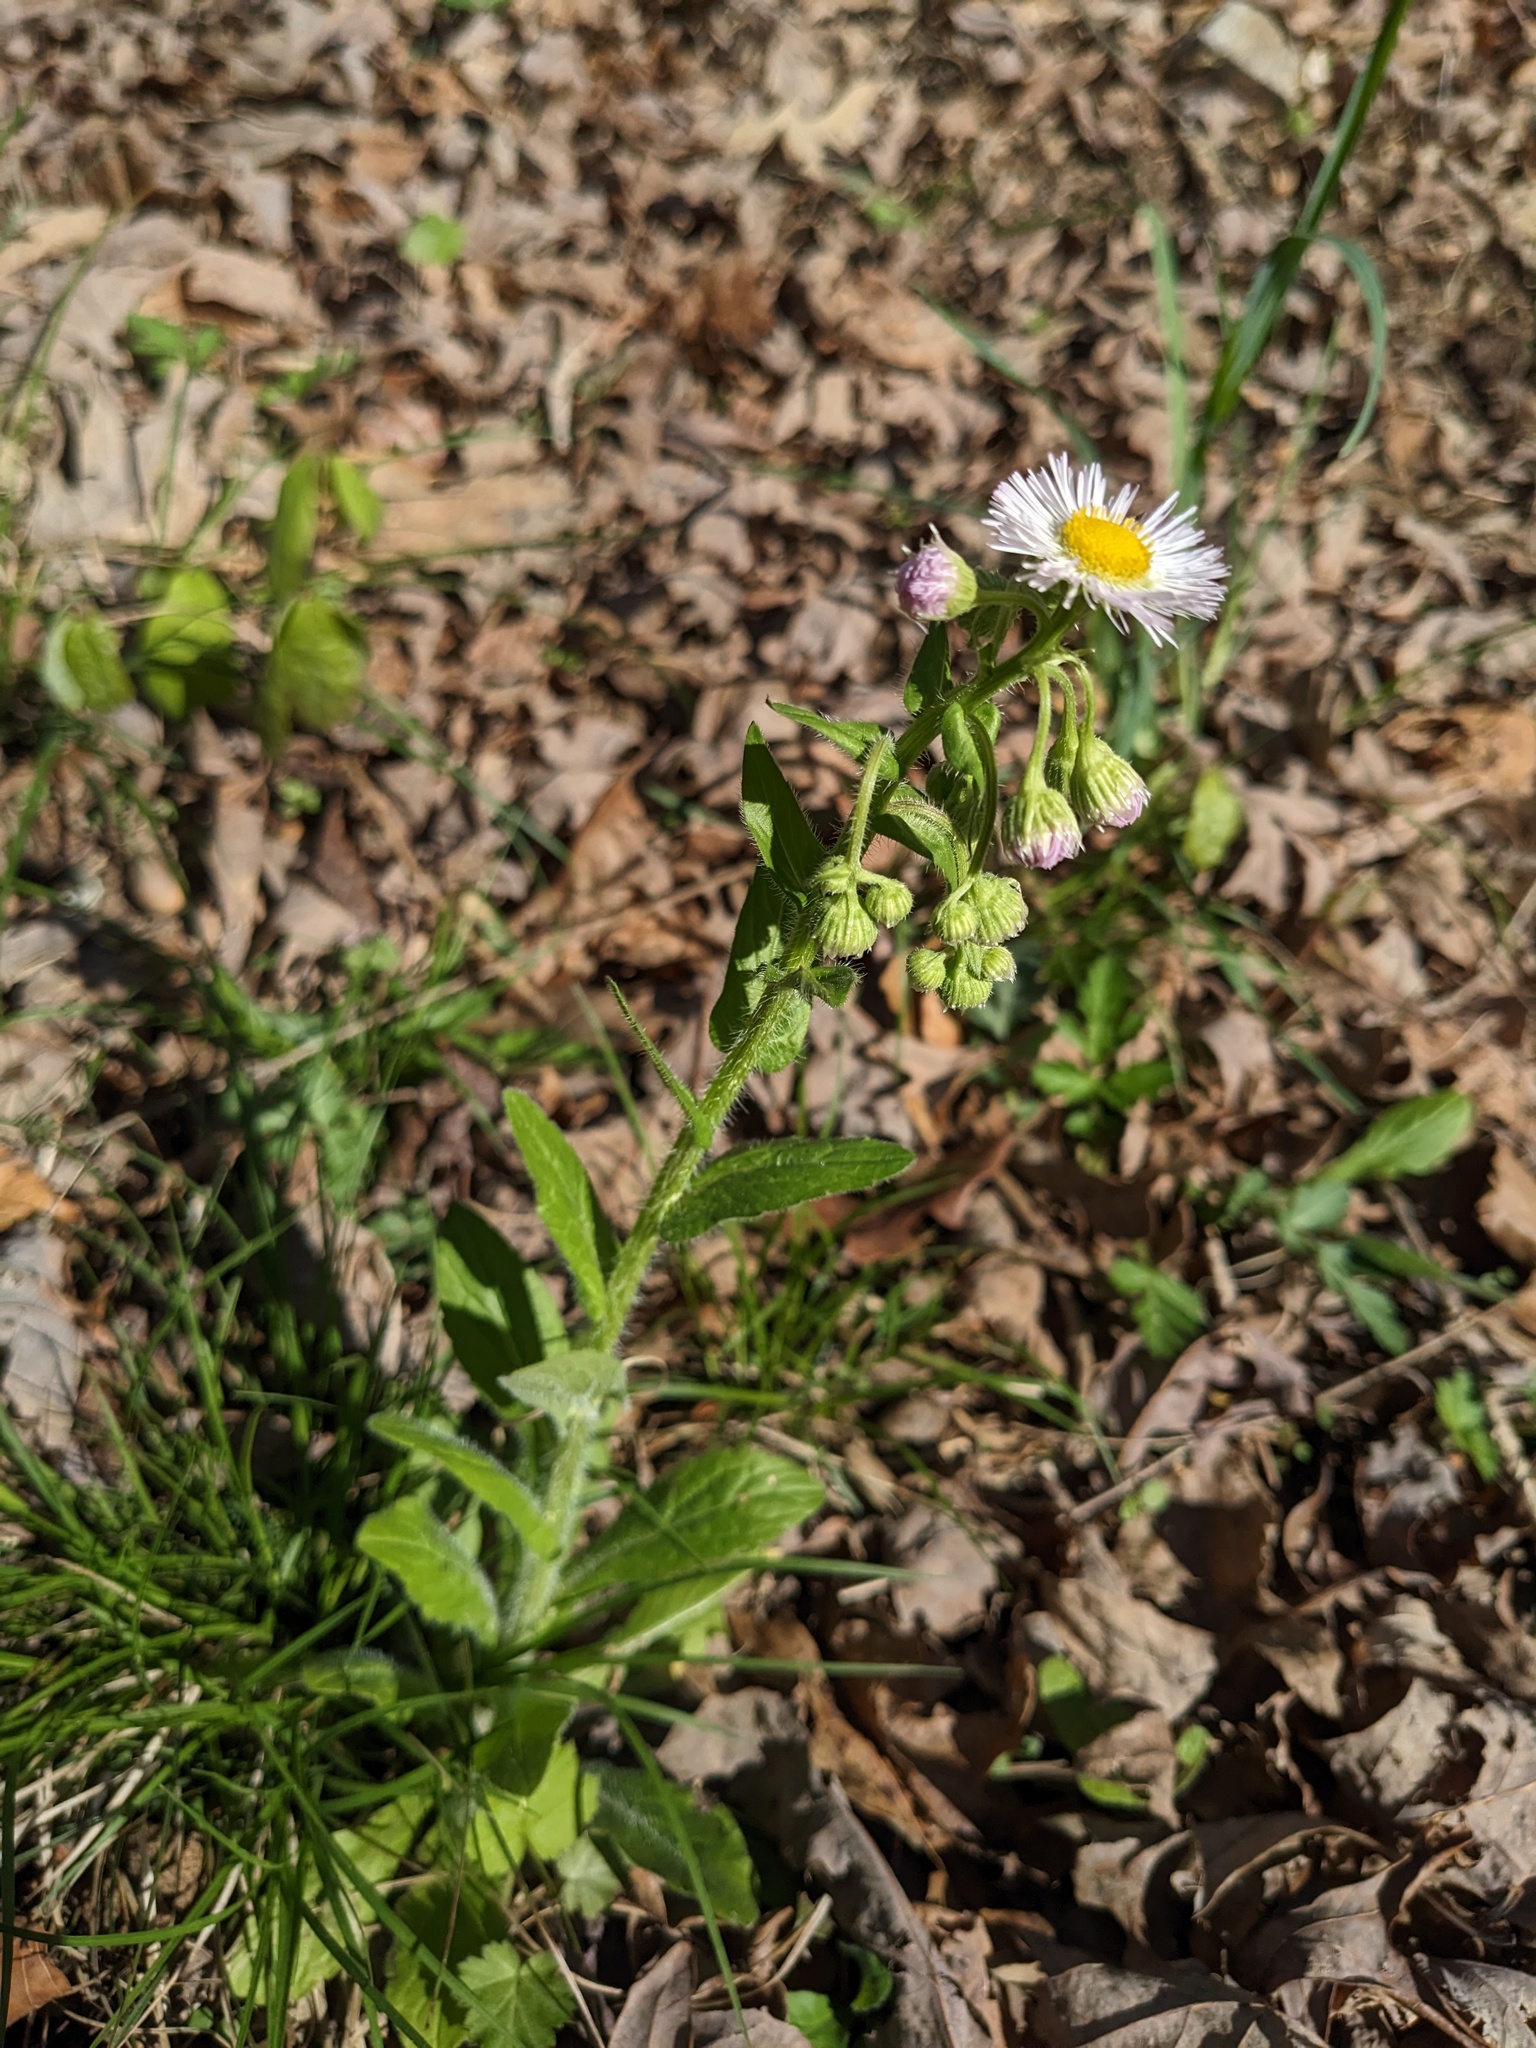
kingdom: Plantae
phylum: Tracheophyta
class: Magnoliopsida
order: Asterales
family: Asteraceae
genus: Erigeron
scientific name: Erigeron philadelphicus
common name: Robin's-plantain
